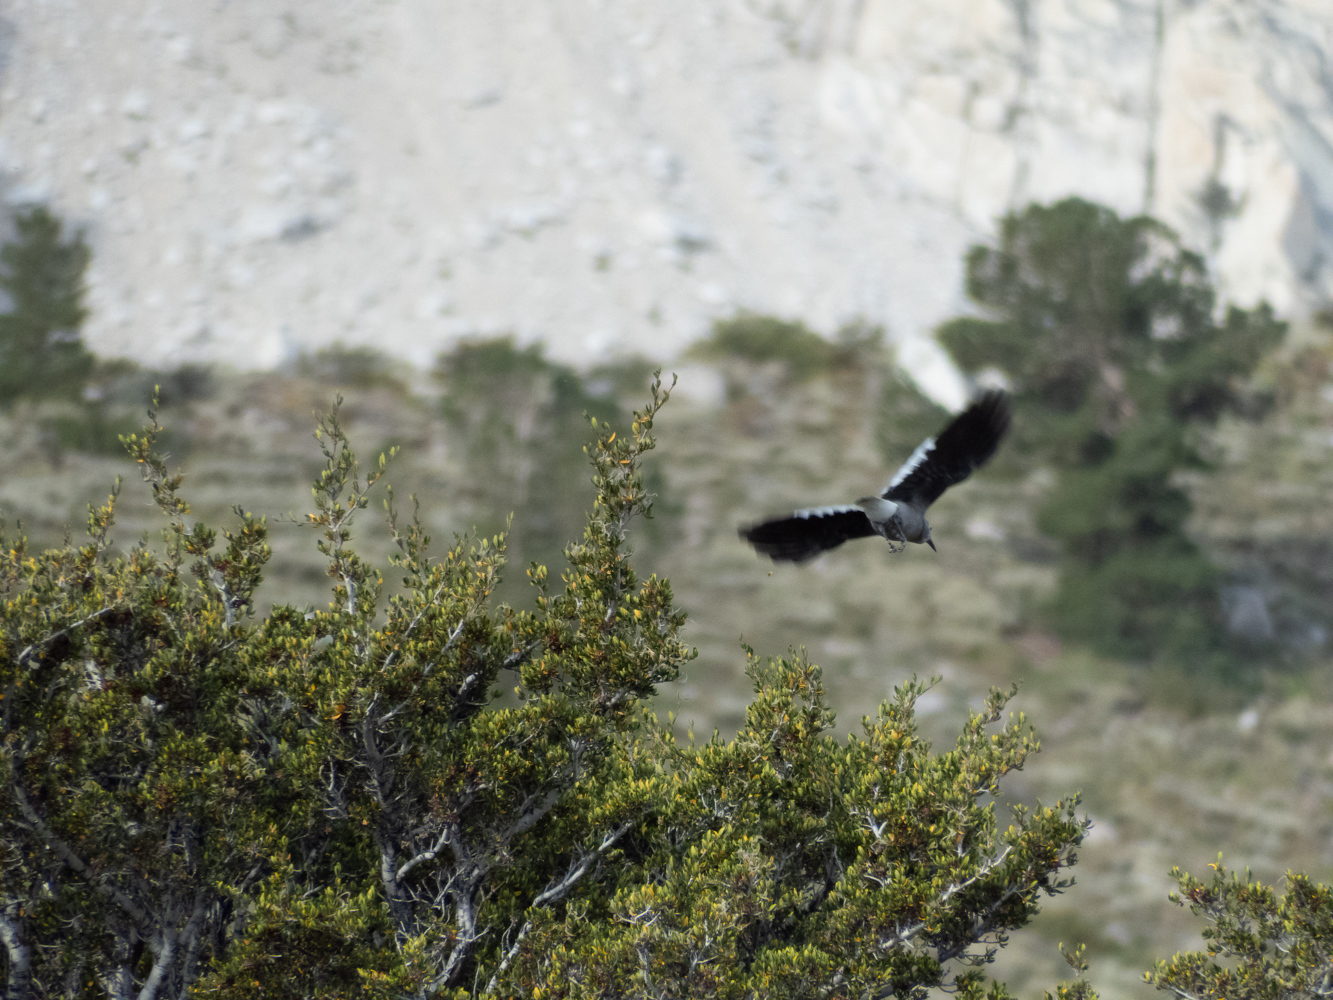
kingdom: Animalia
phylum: Chordata
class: Aves
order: Passeriformes
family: Corvidae
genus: Nucifraga
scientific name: Nucifraga columbiana
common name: Clark's nutcracker
